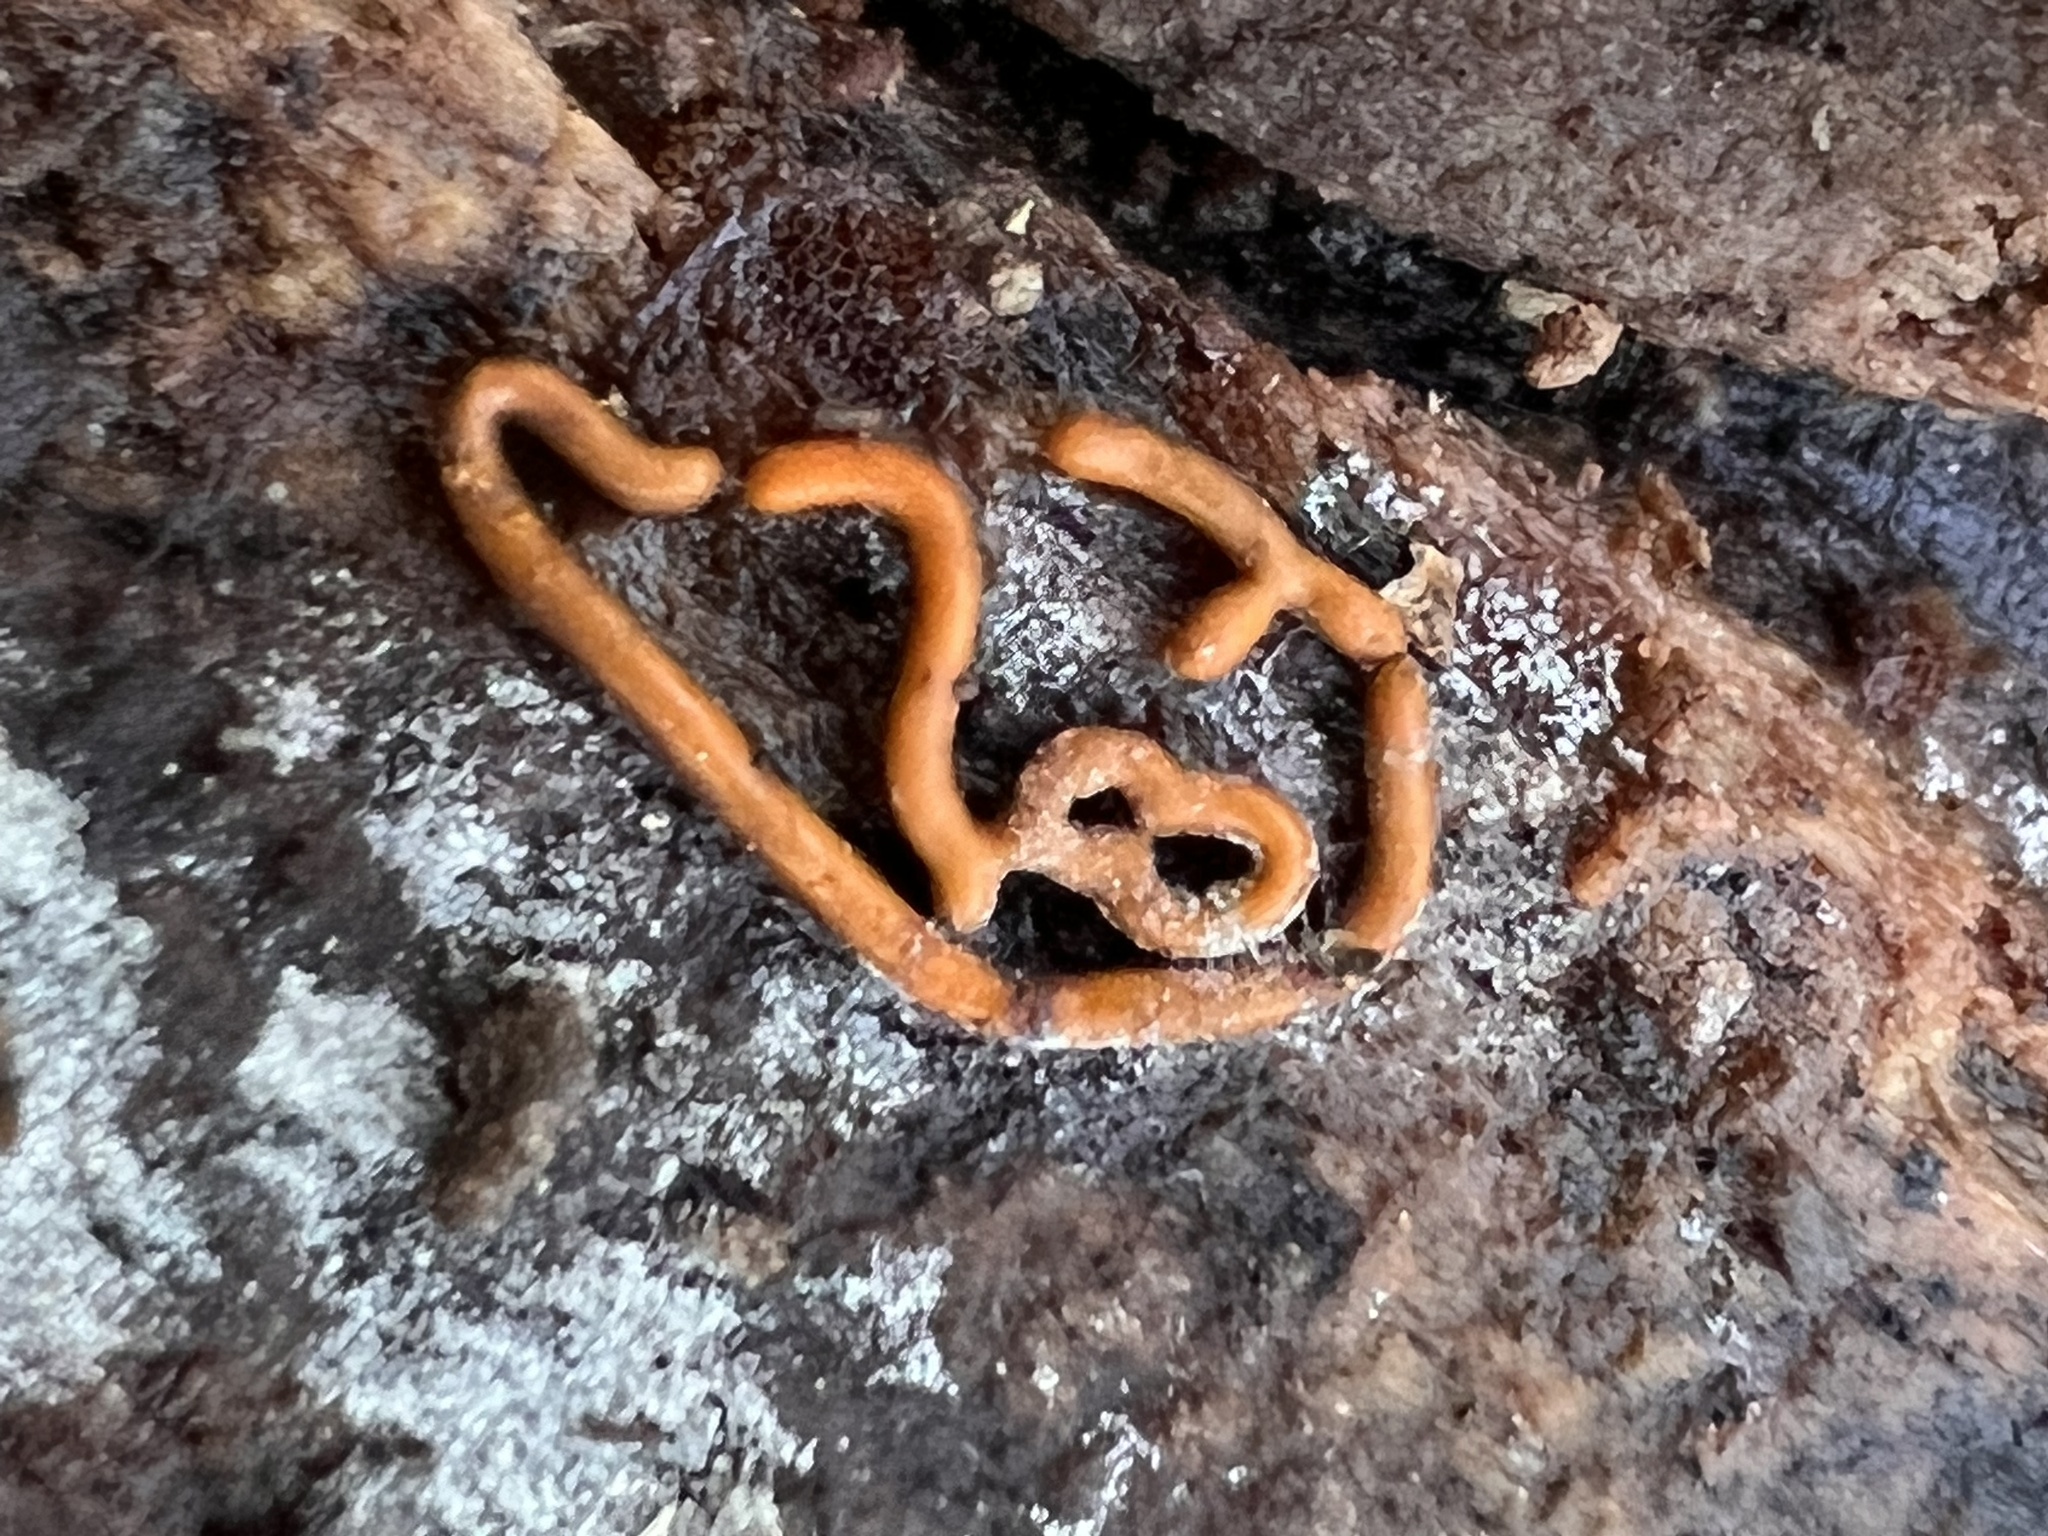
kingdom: Protozoa
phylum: Mycetozoa
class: Myxomycetes
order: Trichiales
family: Arcyriaceae
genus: Hemitrichia
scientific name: Hemitrichia serpula
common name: Pretzel slime mold
